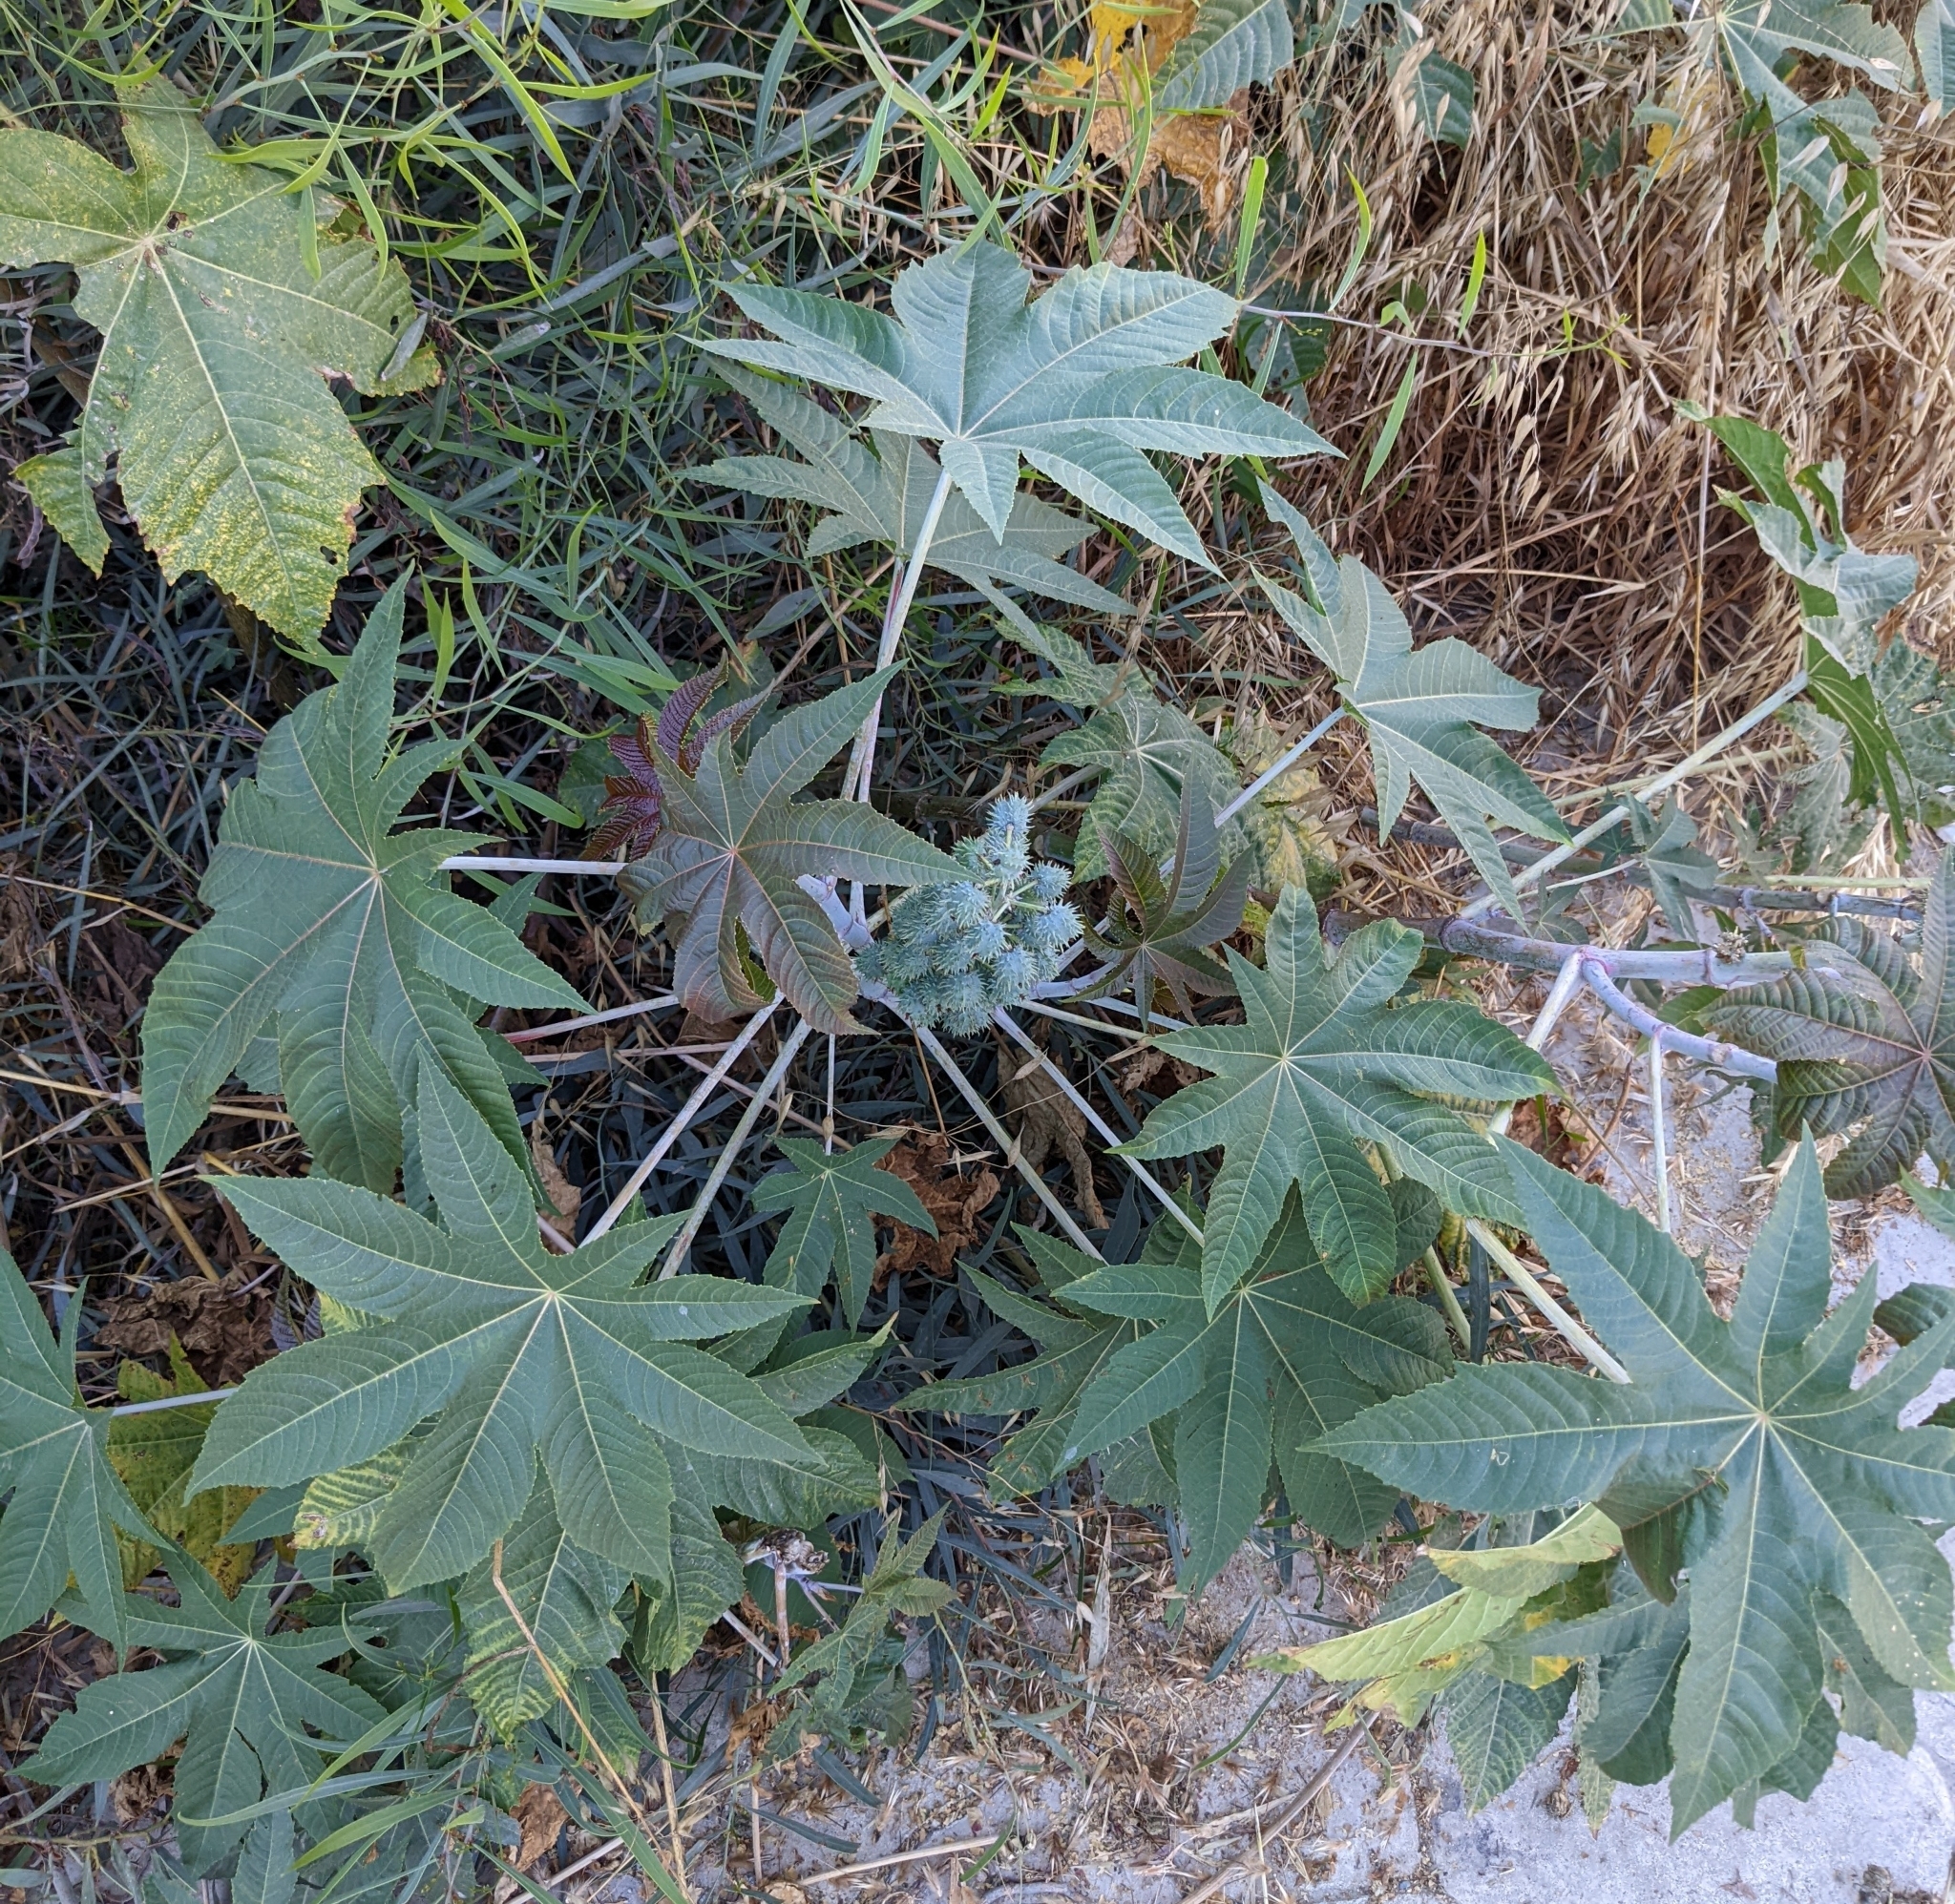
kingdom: Plantae
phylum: Tracheophyta
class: Magnoliopsida
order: Malpighiales
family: Euphorbiaceae
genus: Ricinus
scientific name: Ricinus communis
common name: Castor-oil-plant
